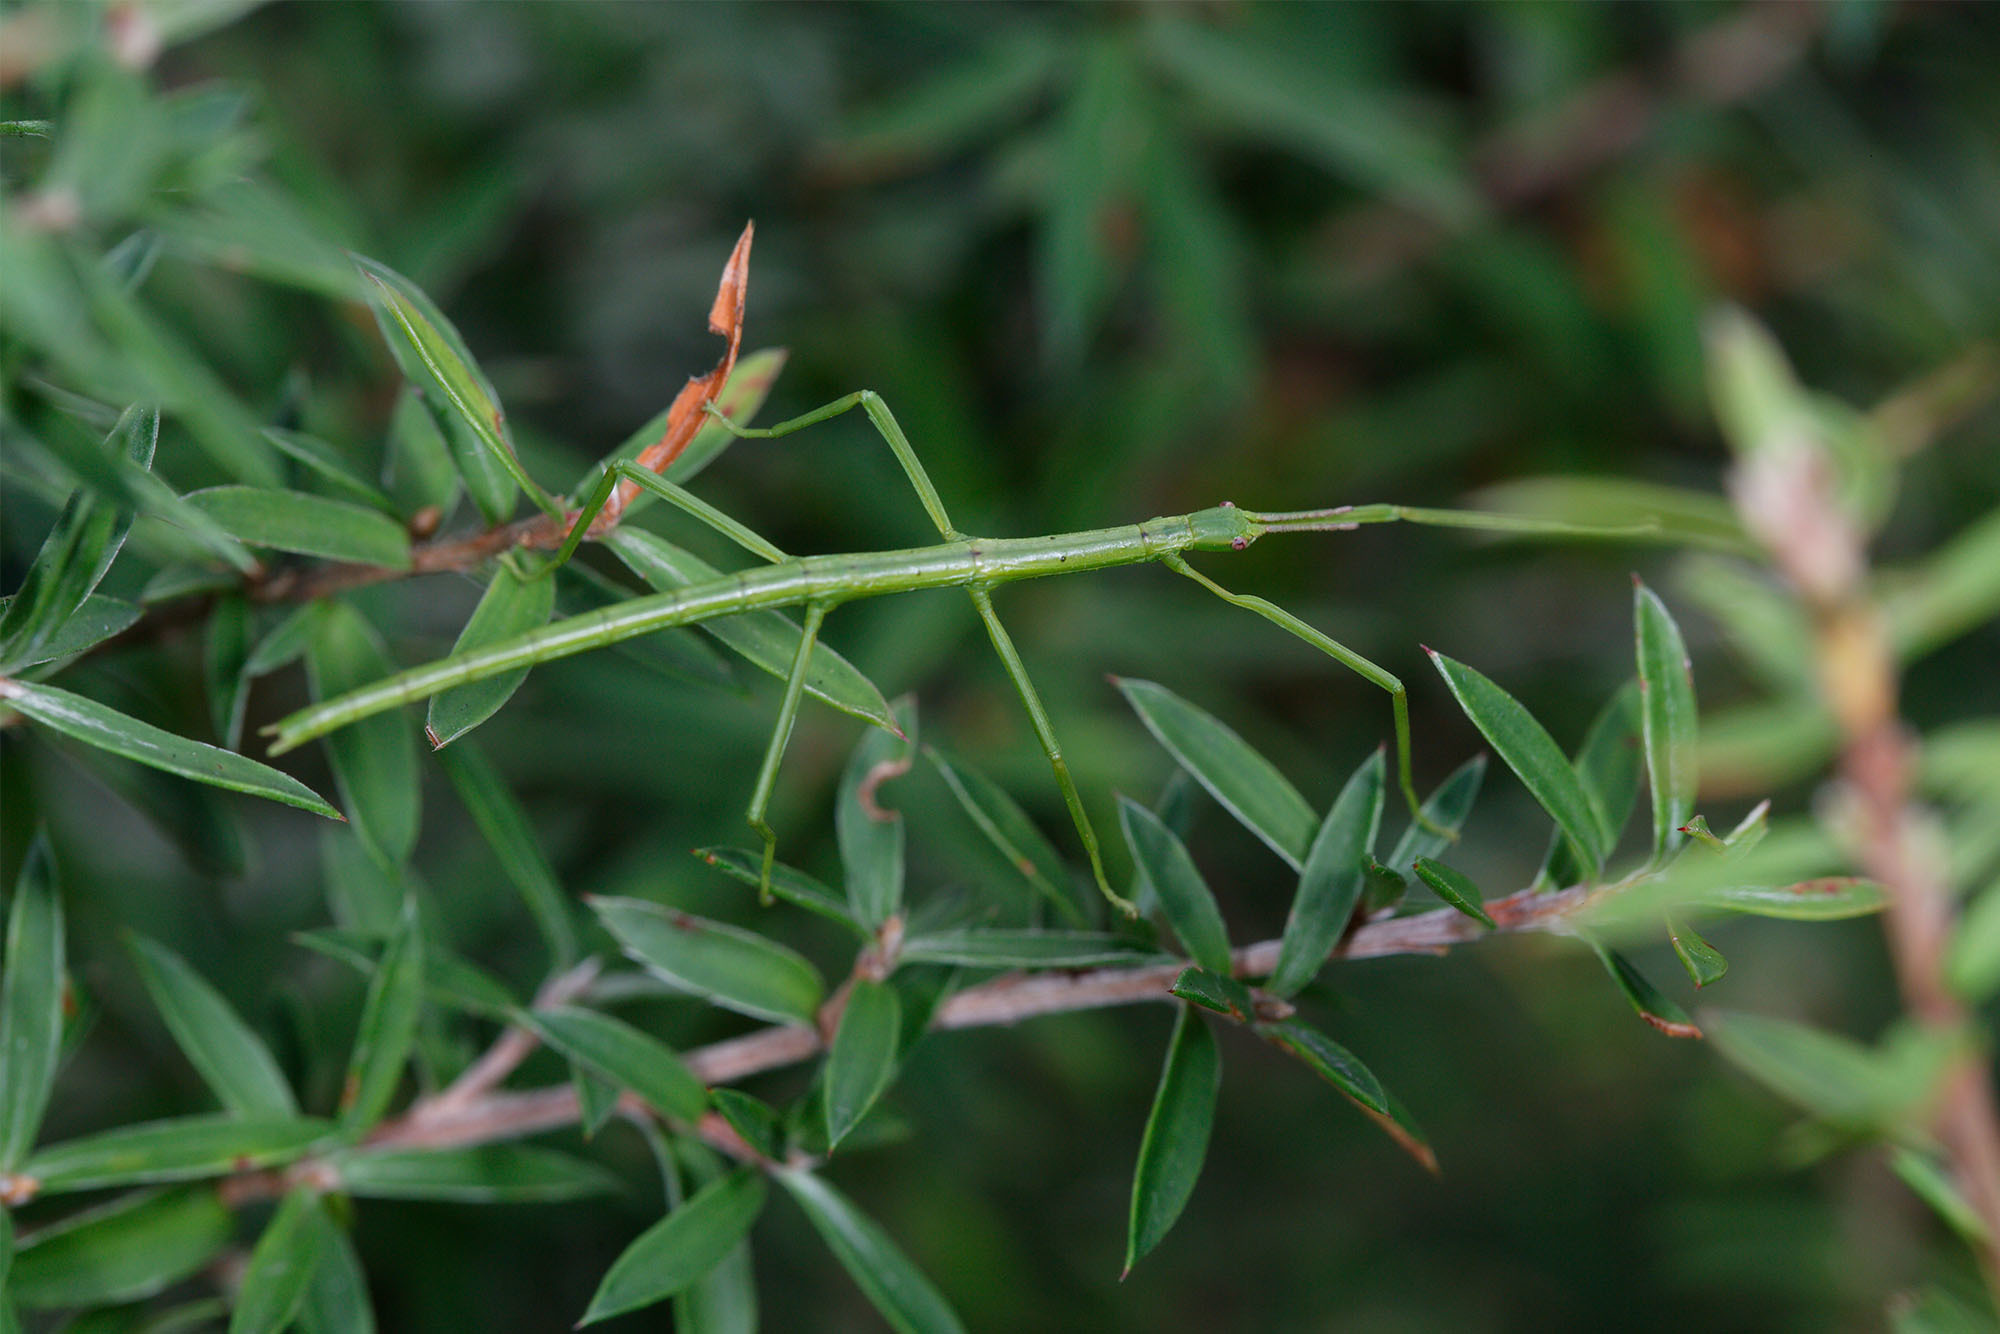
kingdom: Animalia
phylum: Arthropoda
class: Insecta
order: Phasmida
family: Phasmatidae
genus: Clitarchus
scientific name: Clitarchus hookeri
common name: Smooth stick insect
